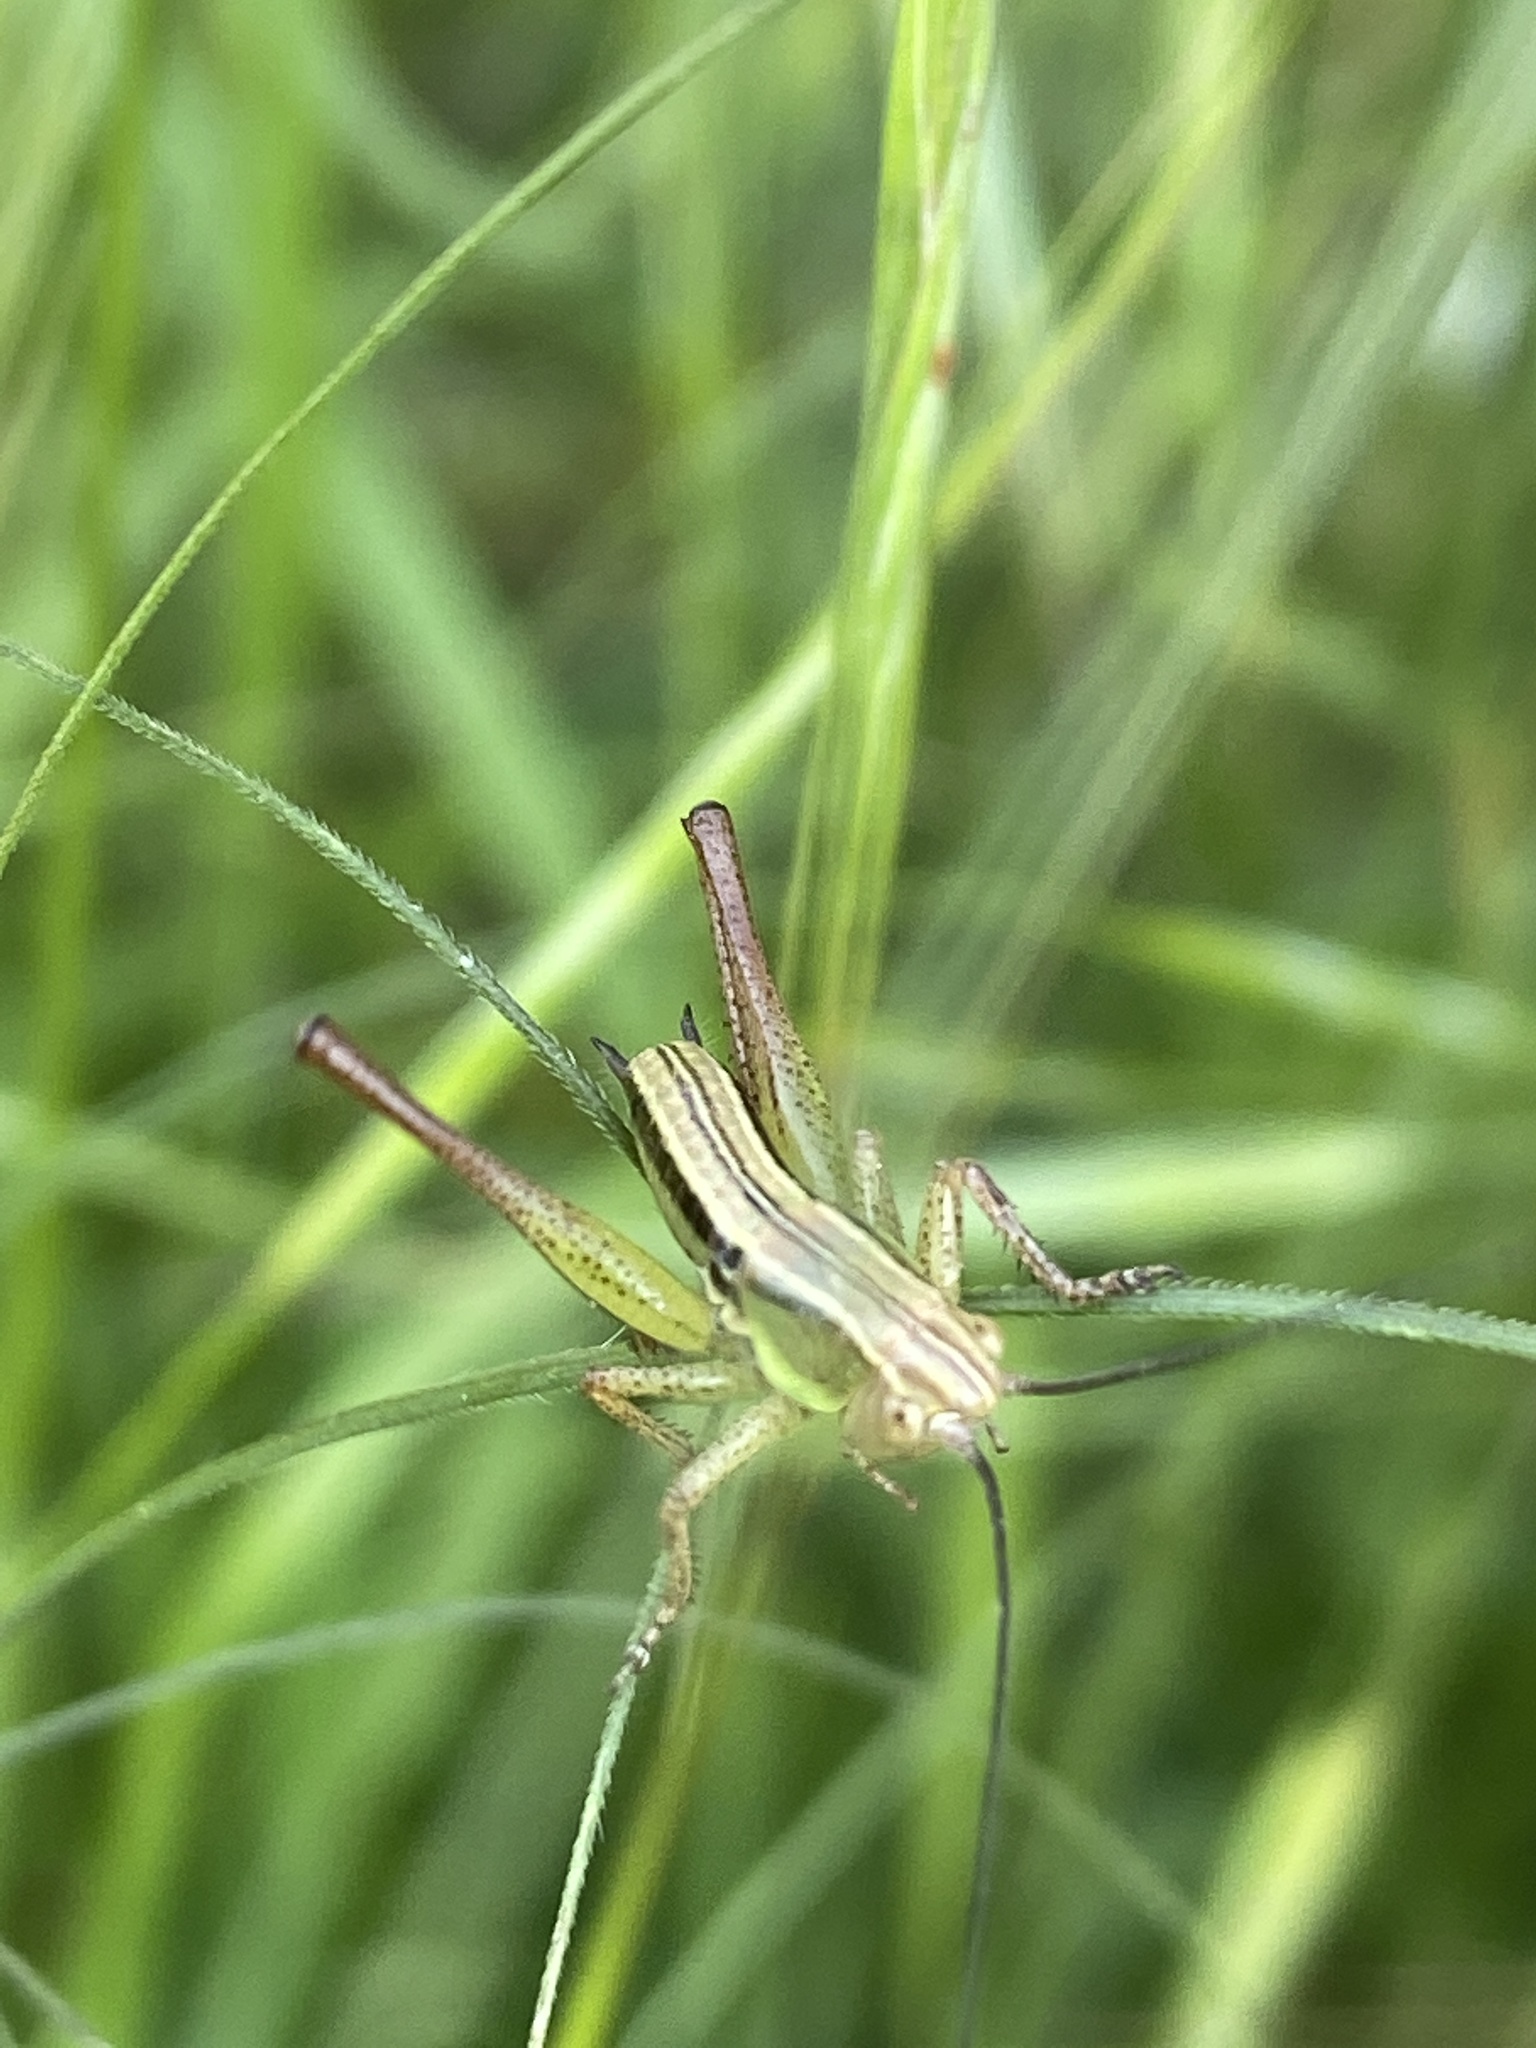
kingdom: Animalia
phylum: Arthropoda
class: Insecta
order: Orthoptera
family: Tettigoniidae
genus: Roeseliana
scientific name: Roeseliana roeselii
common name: Roesel's bush cricket
